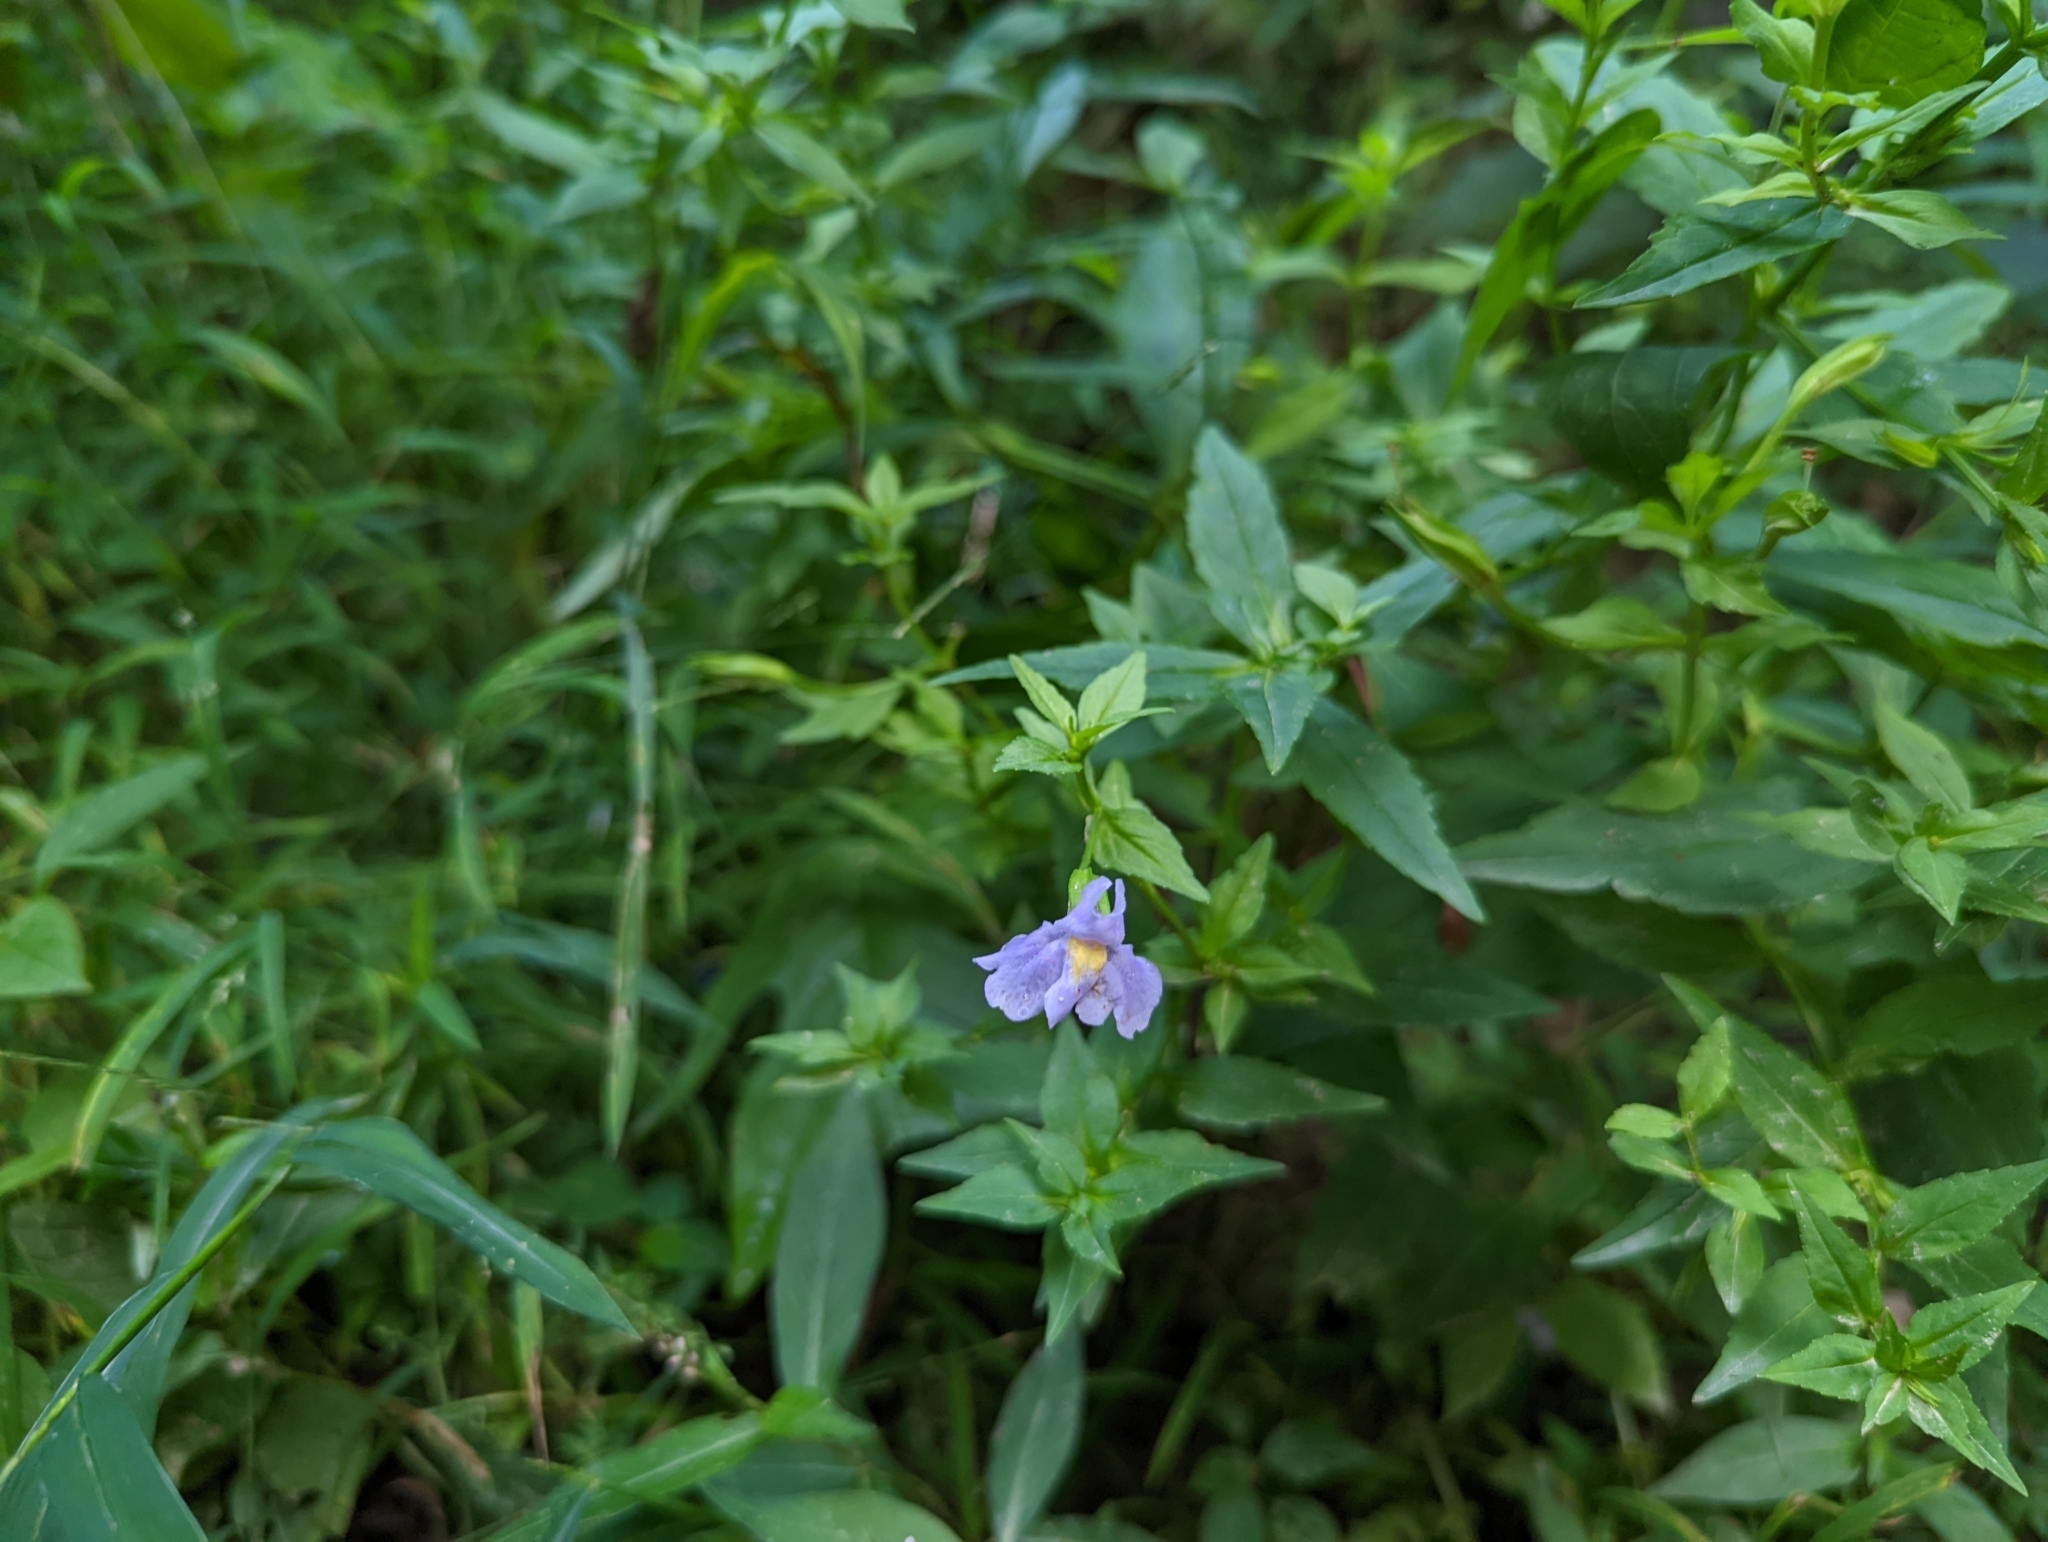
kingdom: Plantae
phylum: Tracheophyta
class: Magnoliopsida
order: Lamiales
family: Phrymaceae
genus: Mimulus
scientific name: Mimulus ringens
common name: Allegheny monkeyflower
